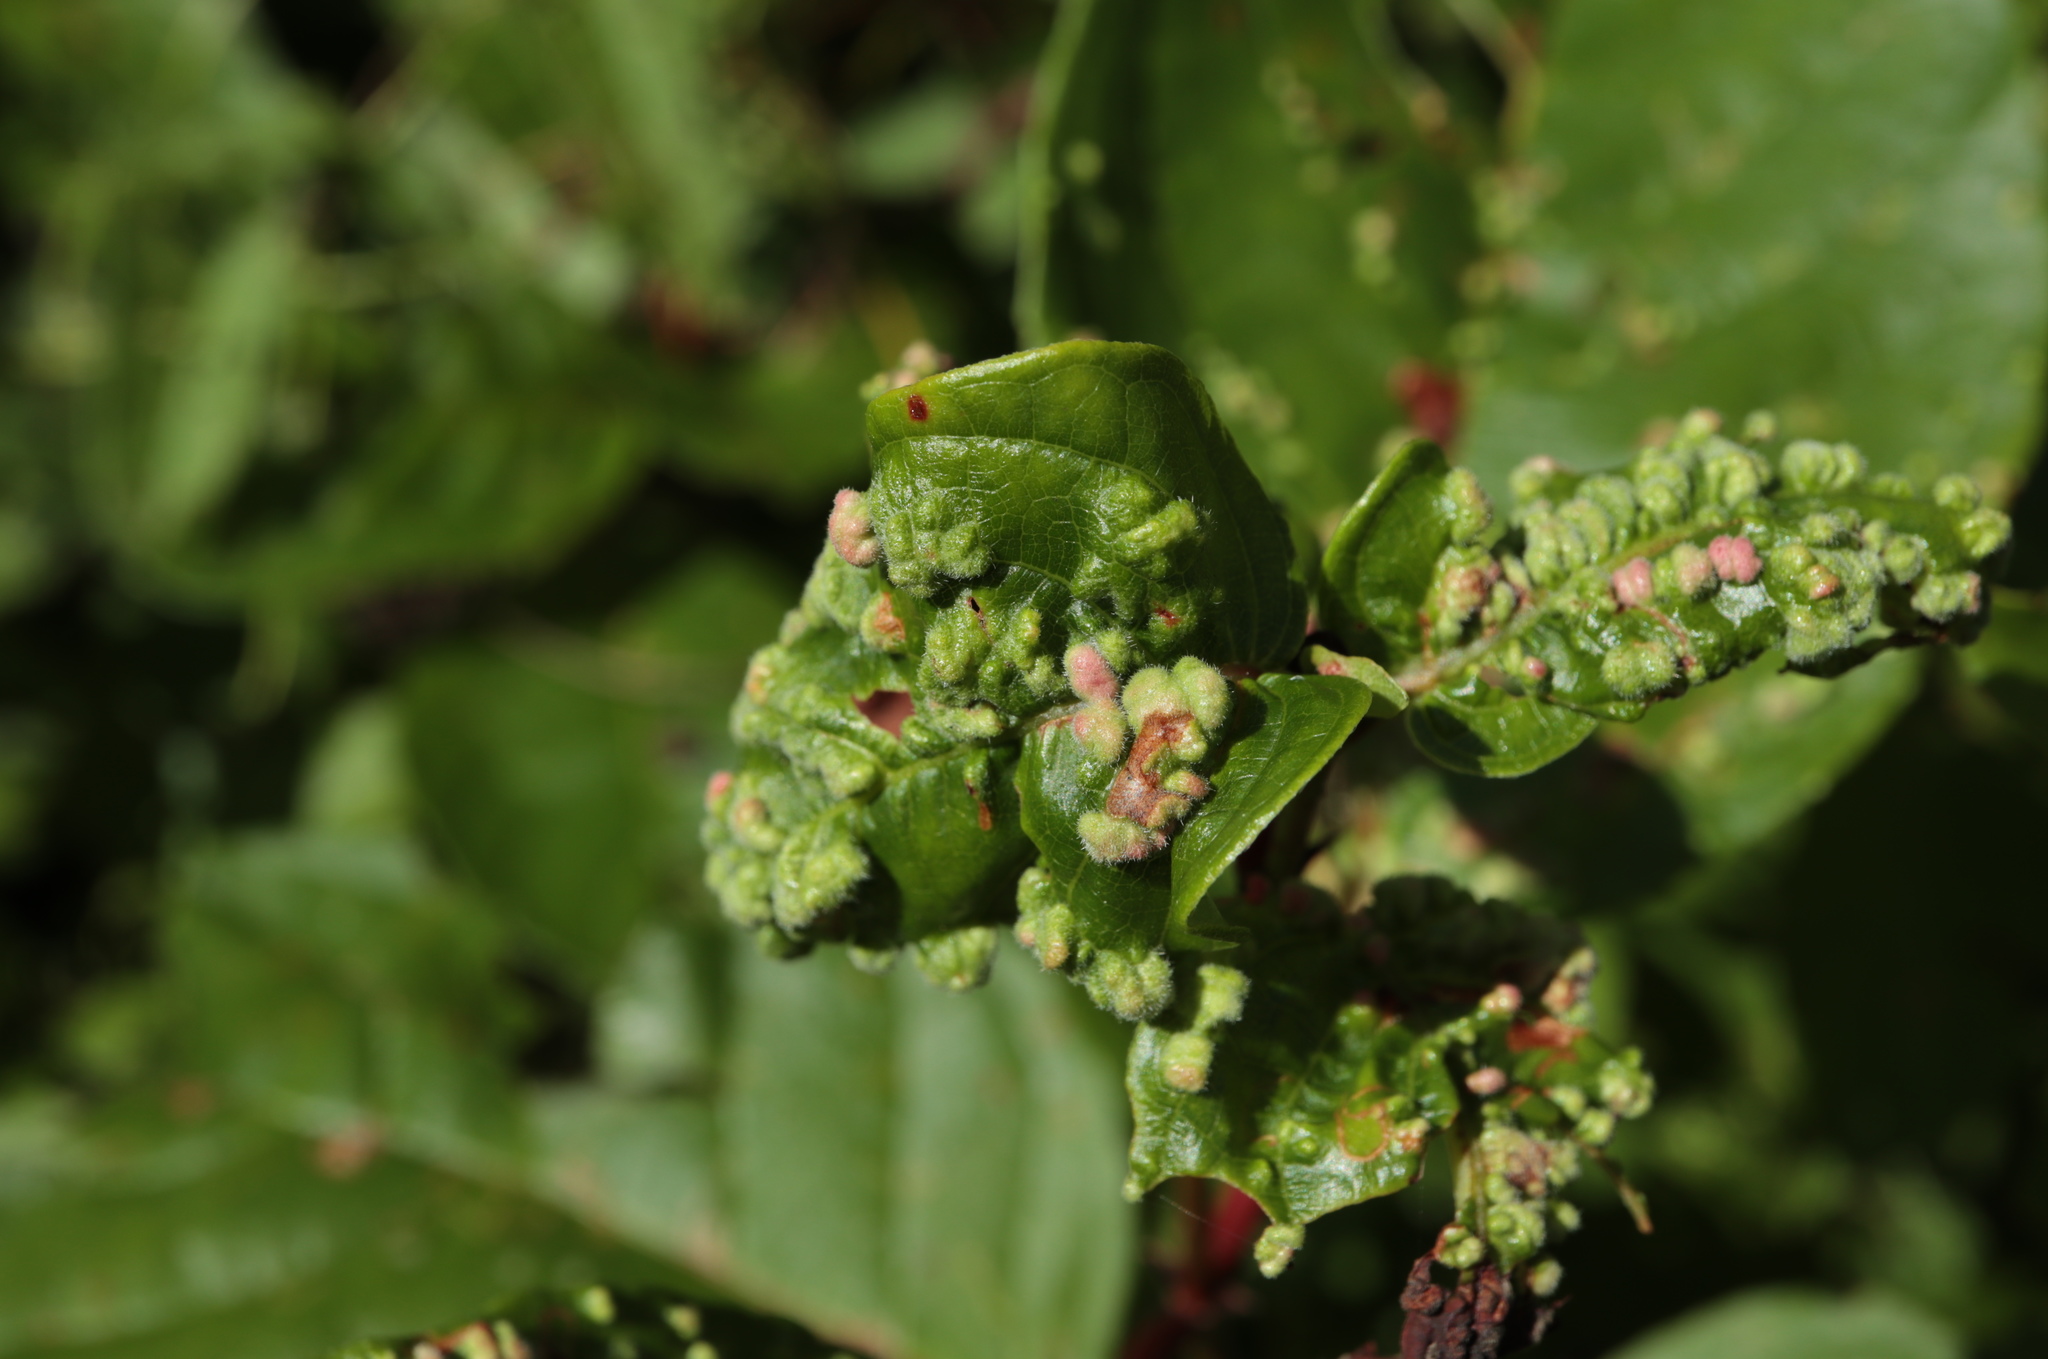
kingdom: Animalia
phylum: Arthropoda
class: Arachnida
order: Trombidiformes
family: Eriophyidae
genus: Aceria
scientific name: Aceria
